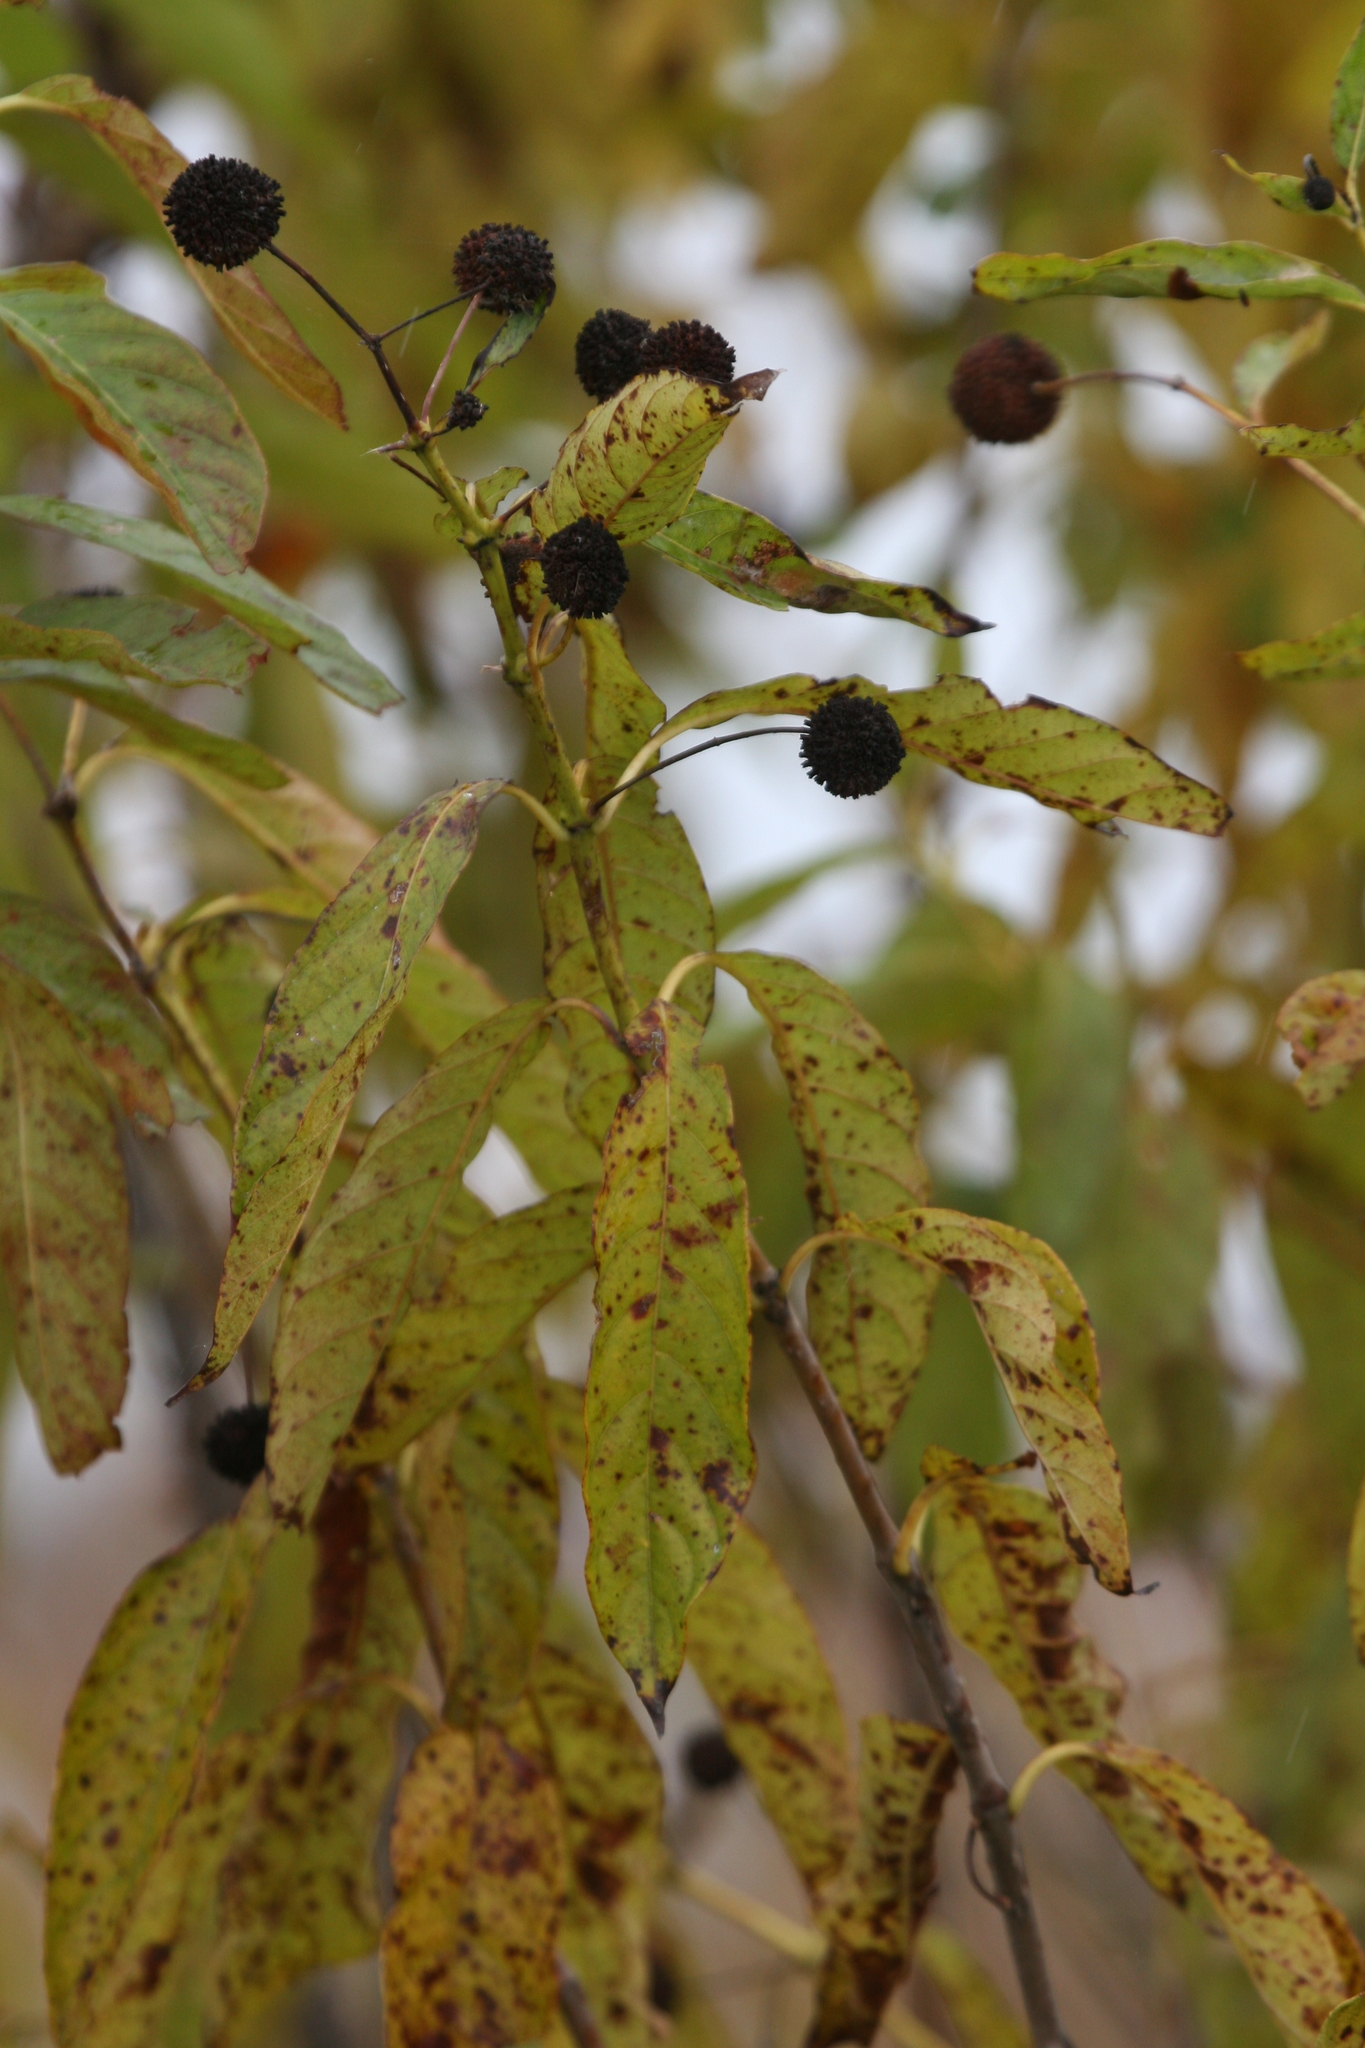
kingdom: Plantae
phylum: Tracheophyta
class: Magnoliopsida
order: Gentianales
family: Rubiaceae
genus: Cephalanthus
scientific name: Cephalanthus occidentalis
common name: Button-willow
